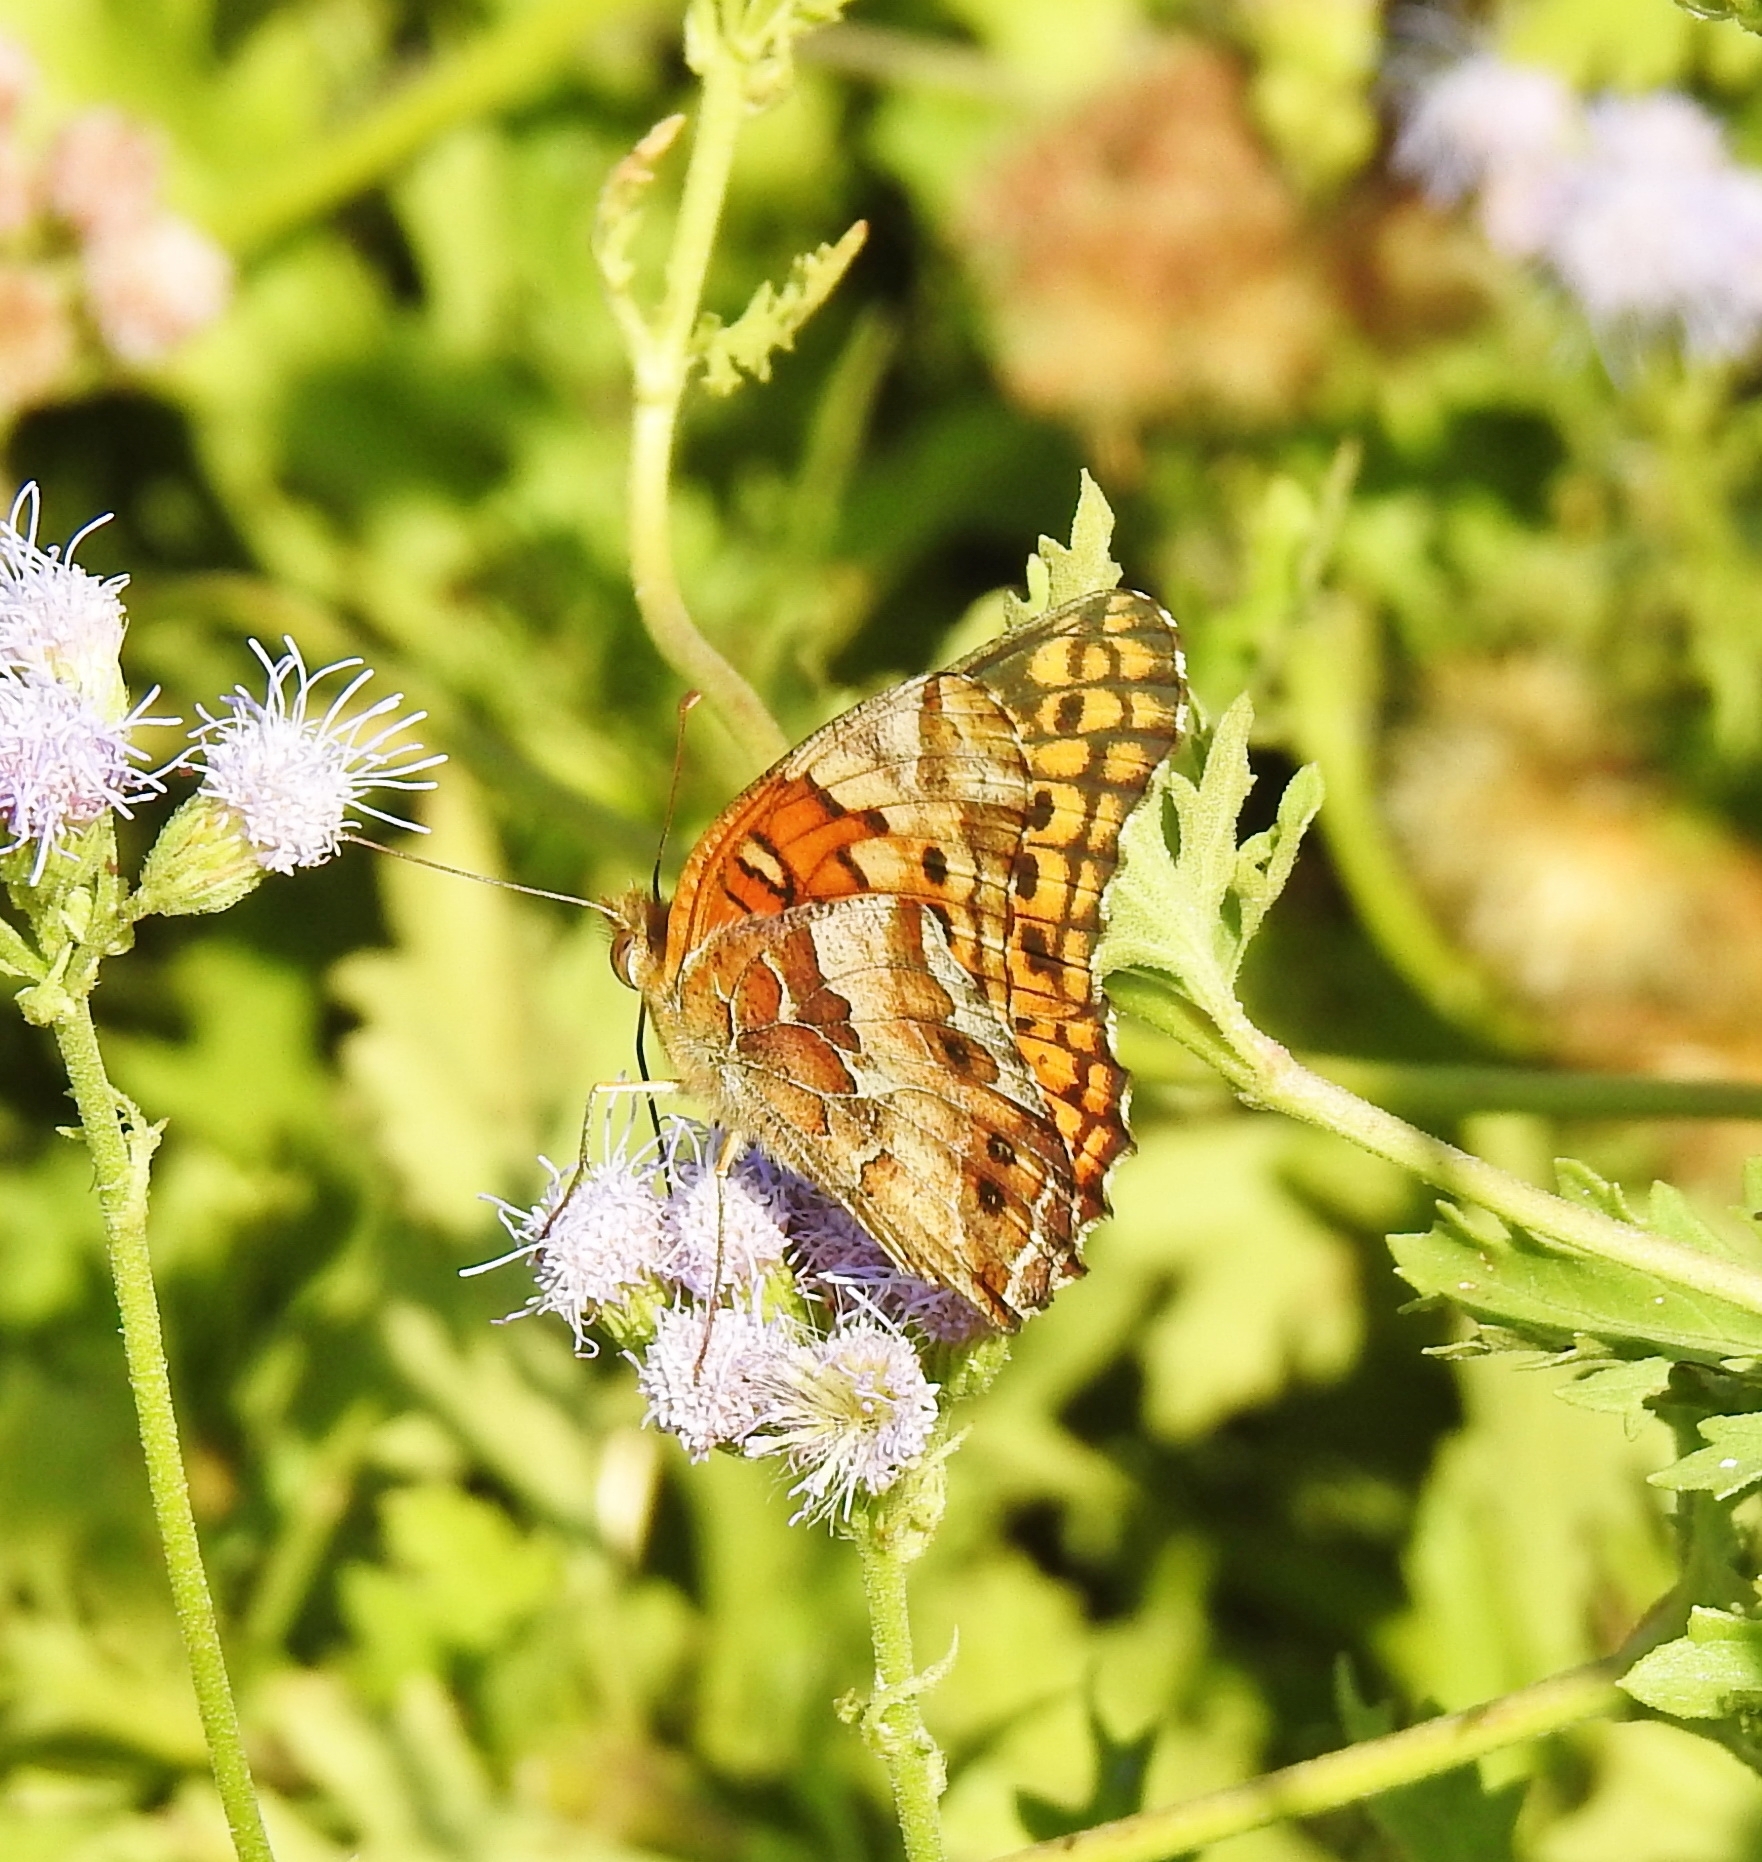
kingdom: Animalia
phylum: Arthropoda
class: Insecta
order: Lepidoptera
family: Nymphalidae
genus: Euptoieta
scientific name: Euptoieta claudia
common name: Variegated fritillary
